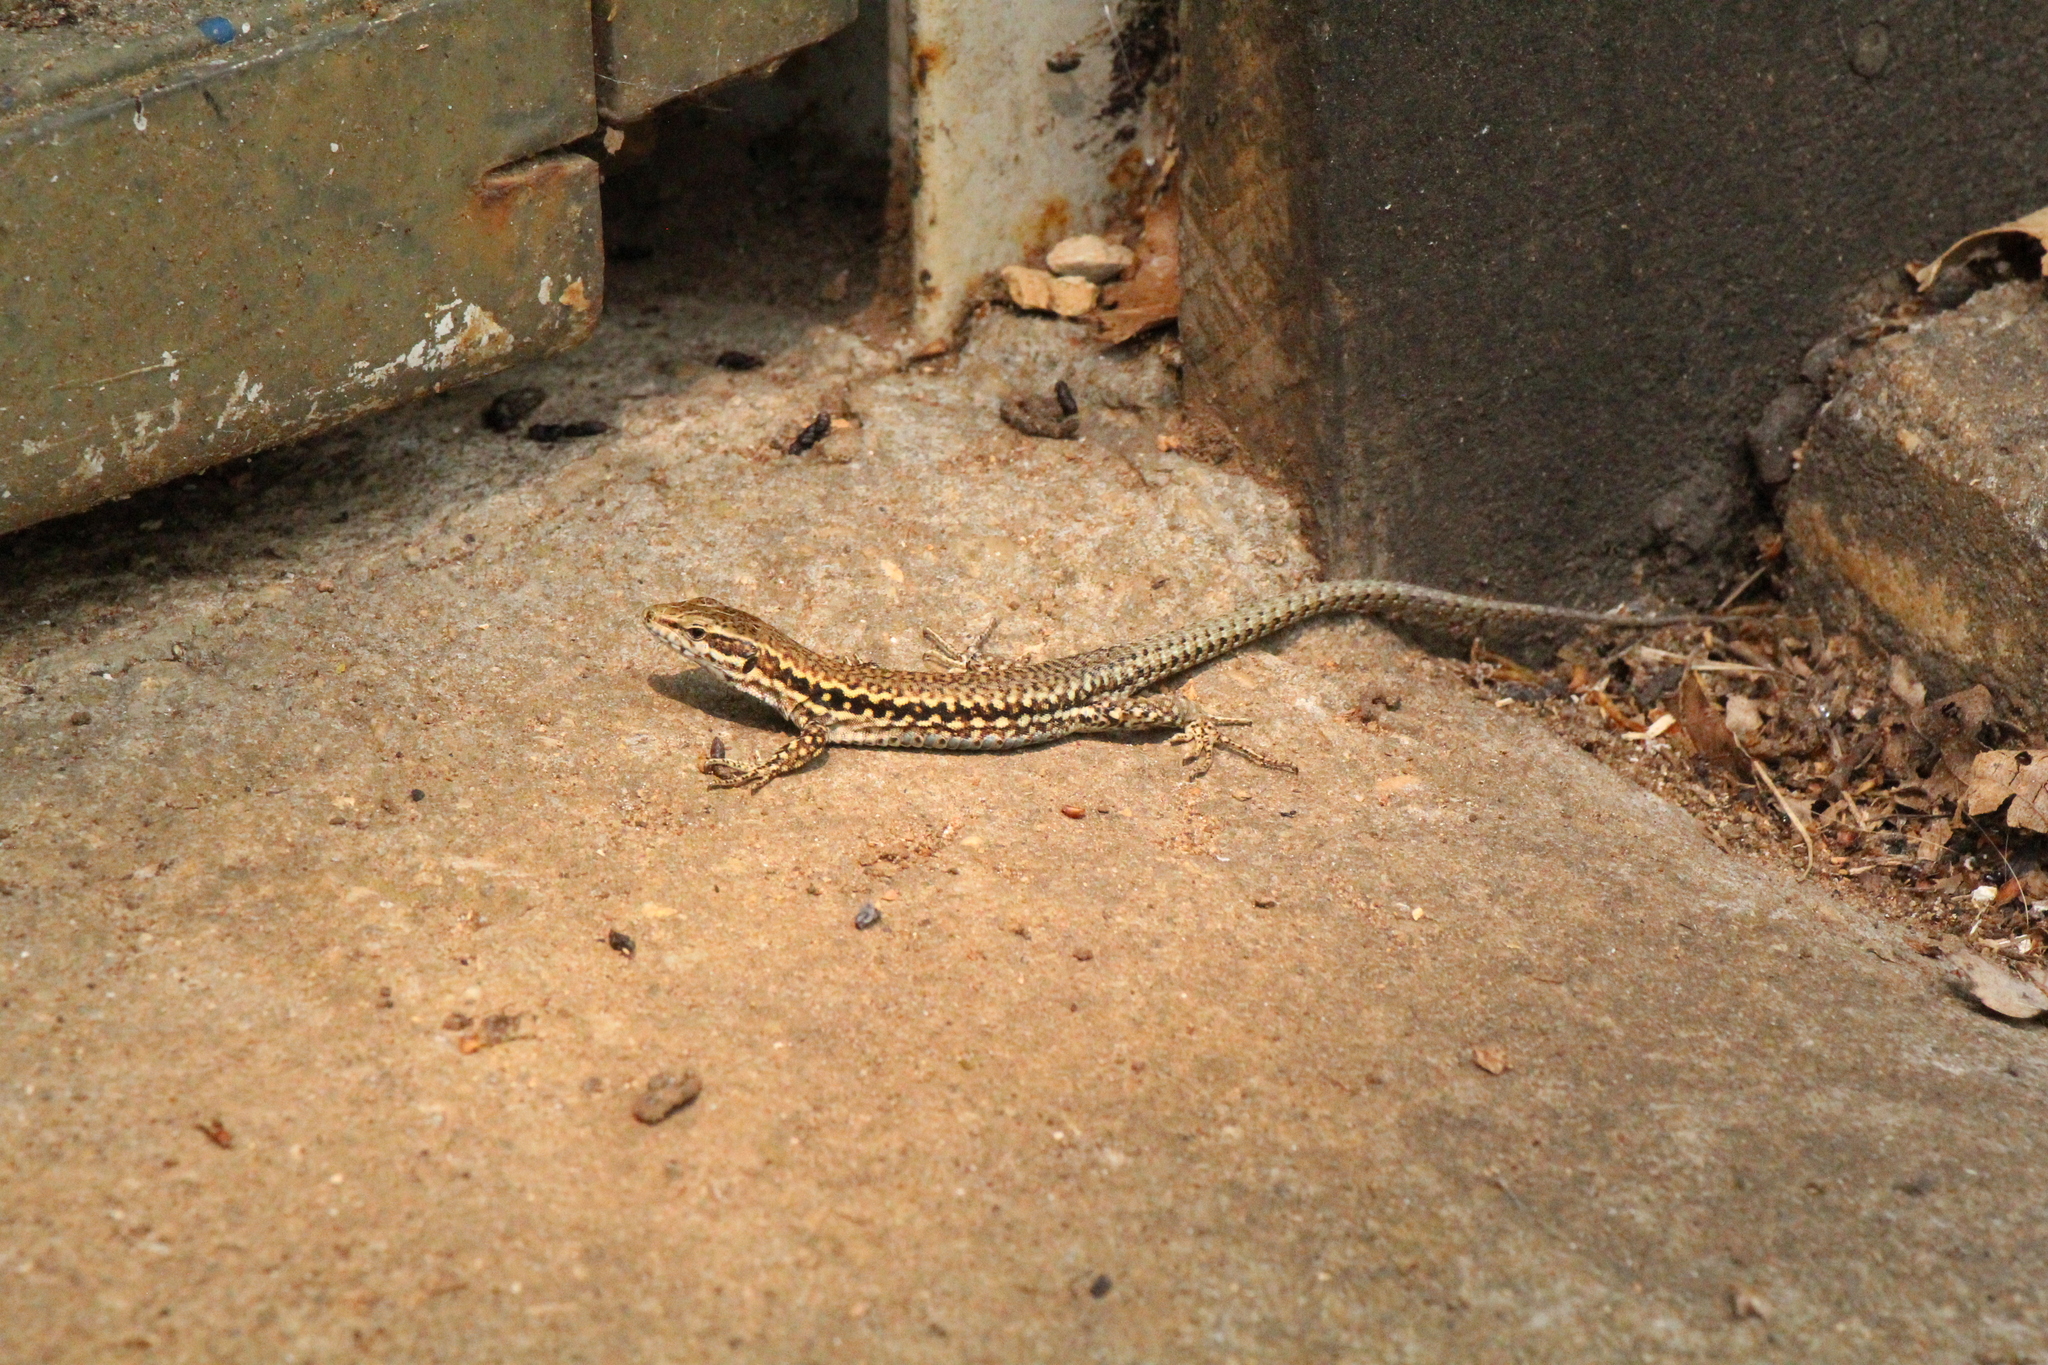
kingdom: Animalia
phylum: Chordata
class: Squamata
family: Lacertidae
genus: Podarcis
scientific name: Podarcis muralis
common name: Common wall lizard
